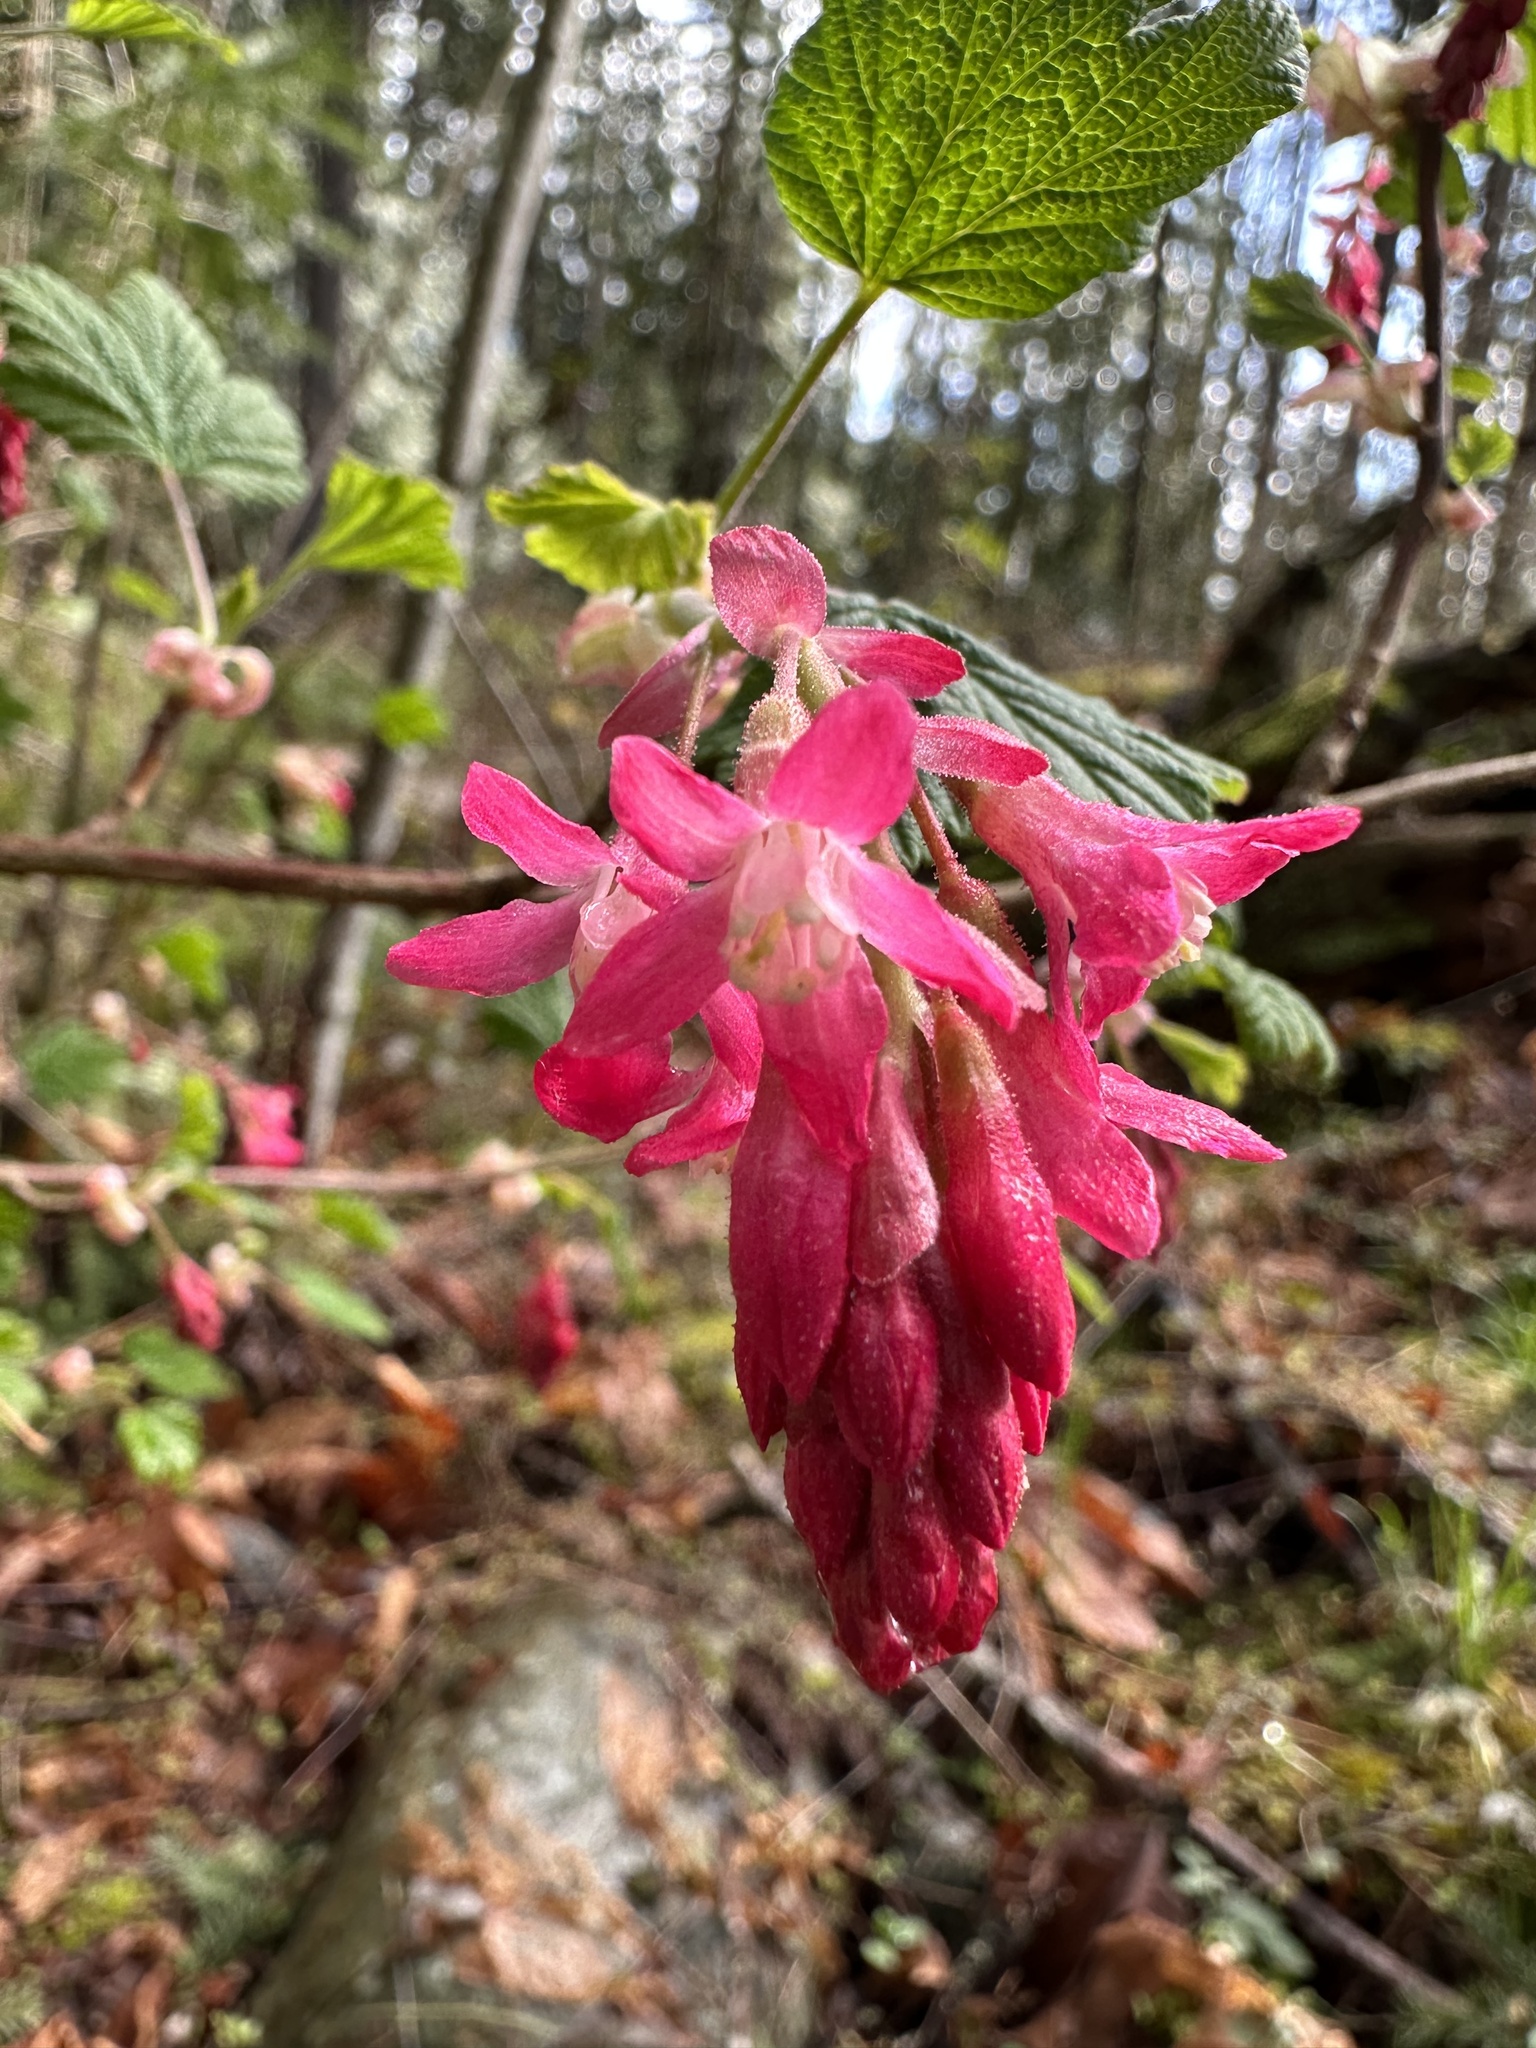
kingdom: Plantae
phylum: Tracheophyta
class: Magnoliopsida
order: Saxifragales
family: Grossulariaceae
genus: Ribes
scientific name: Ribes sanguineum
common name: Flowering currant
